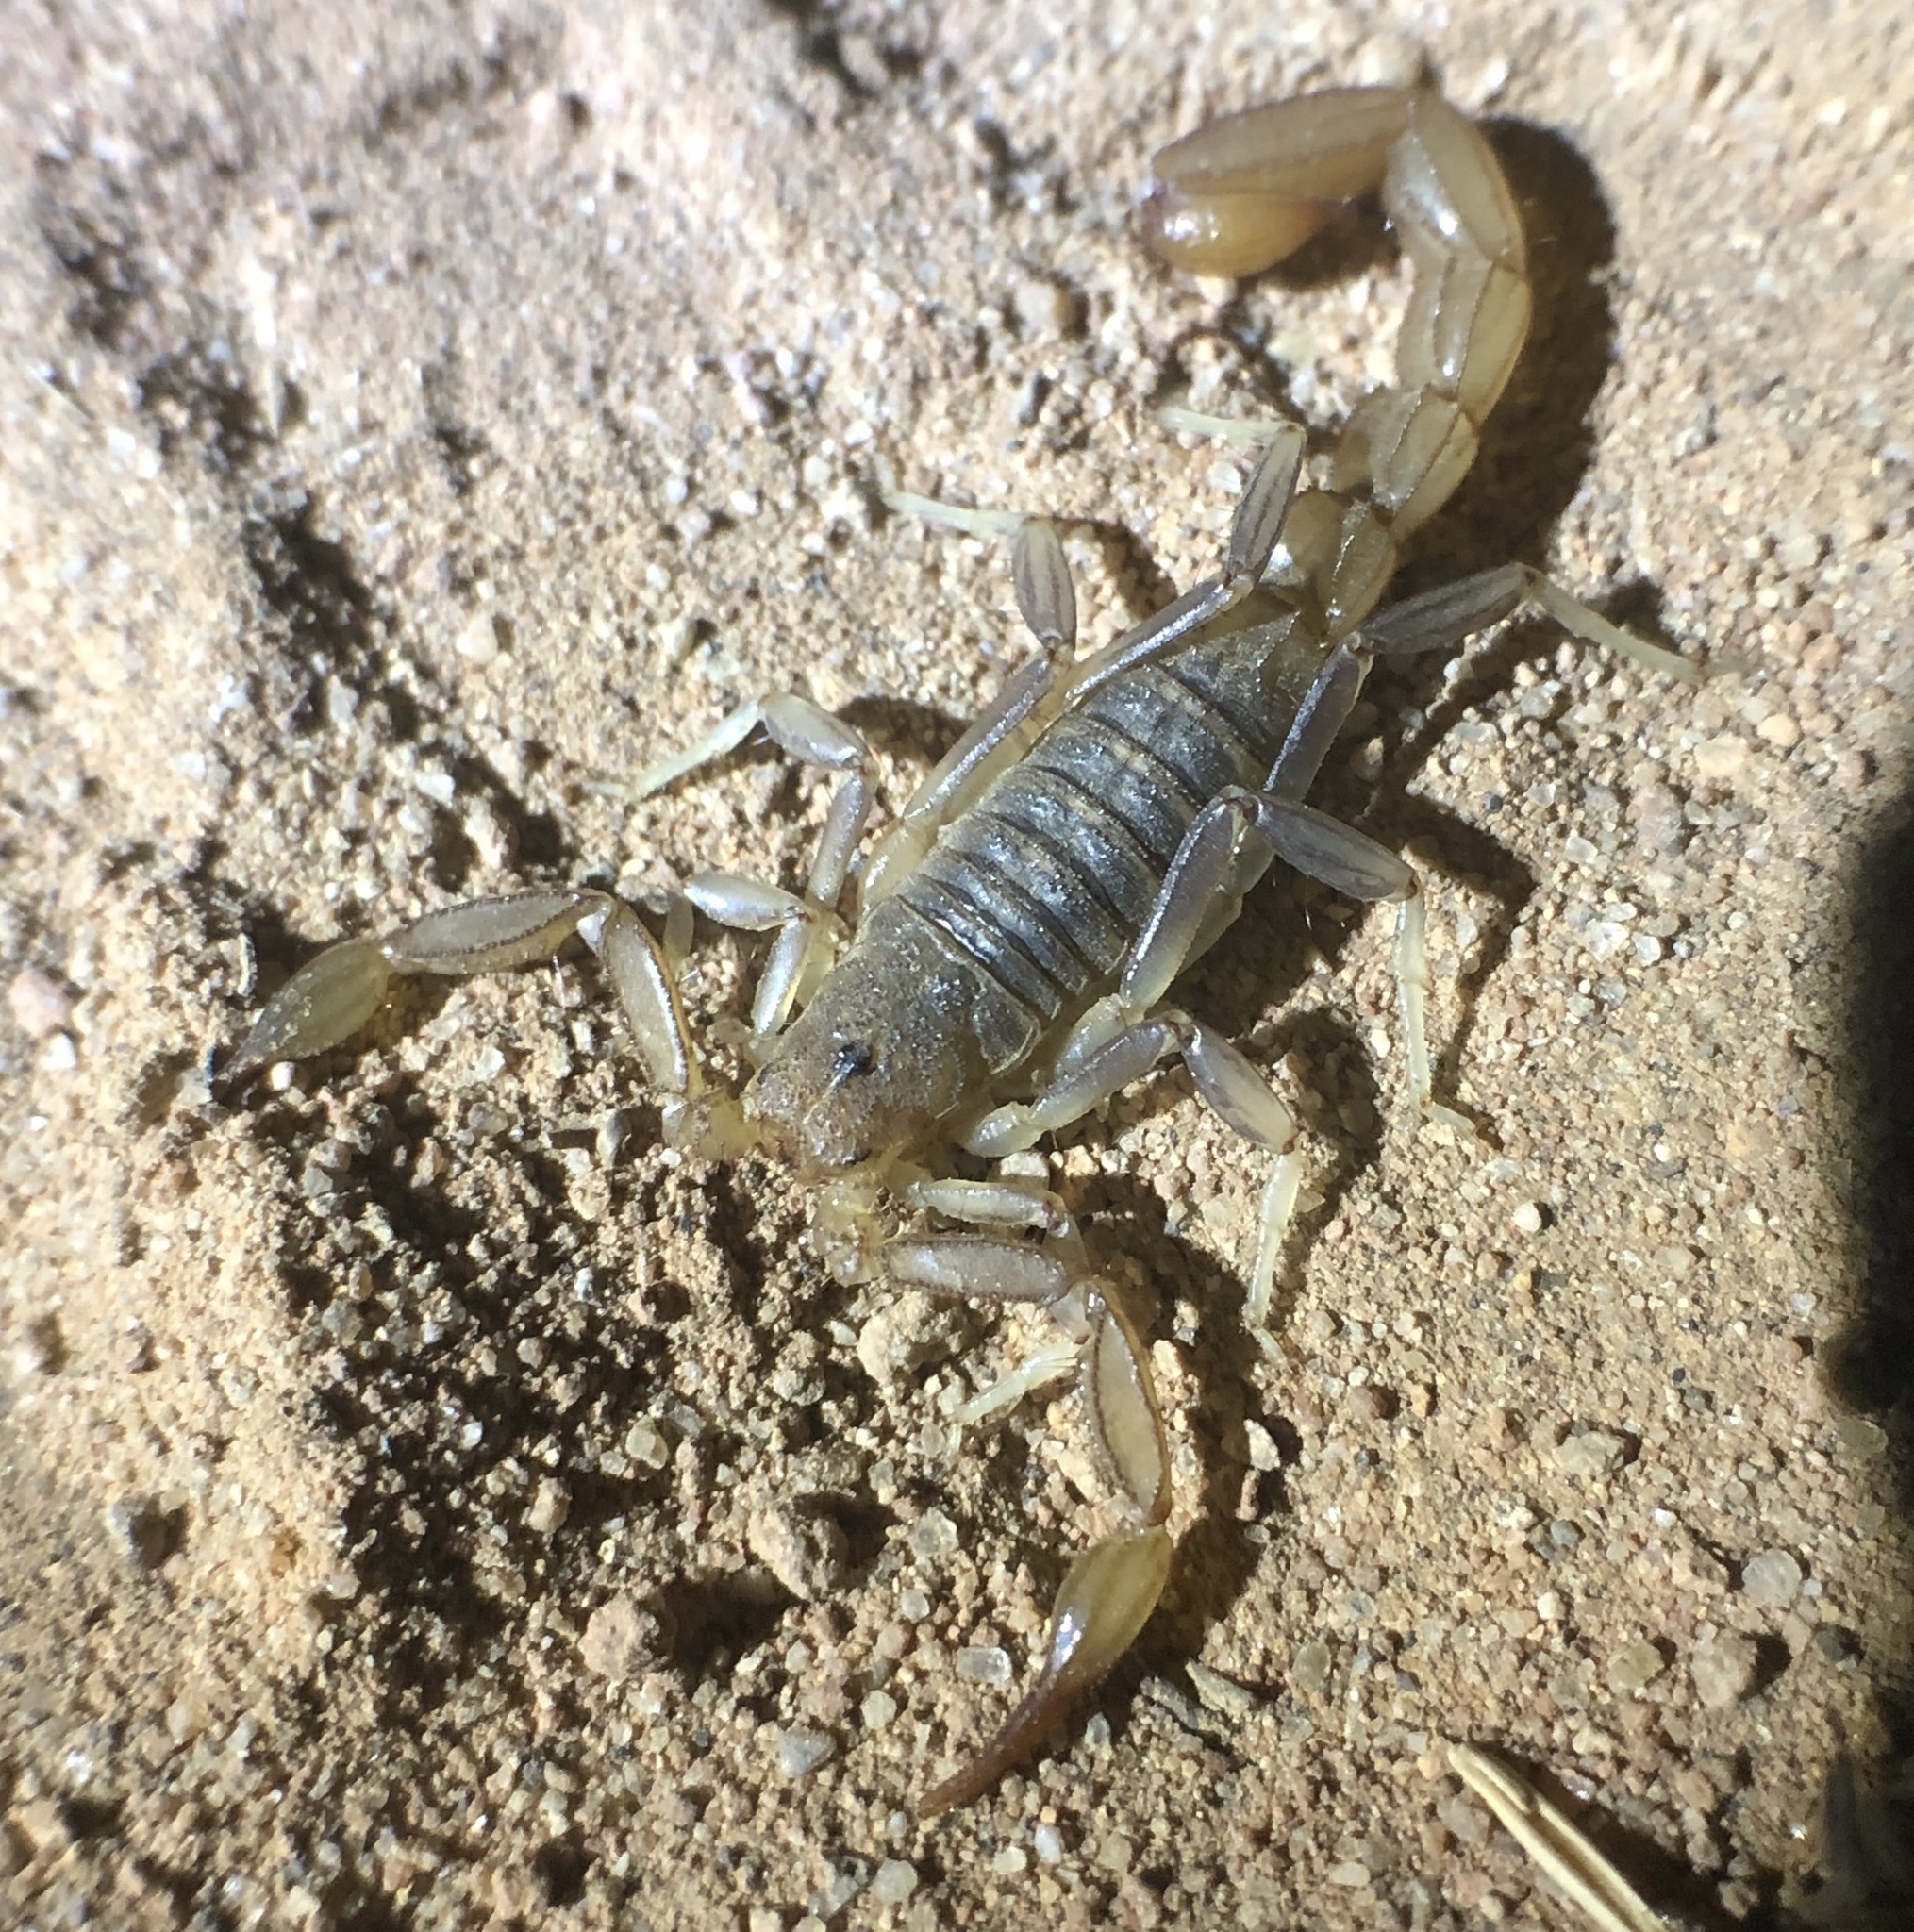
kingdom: Animalia
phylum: Arthropoda
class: Arachnida
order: Scorpiones
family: Vaejovidae
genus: Paravaejovis
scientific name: Paravaejovis puritanus
